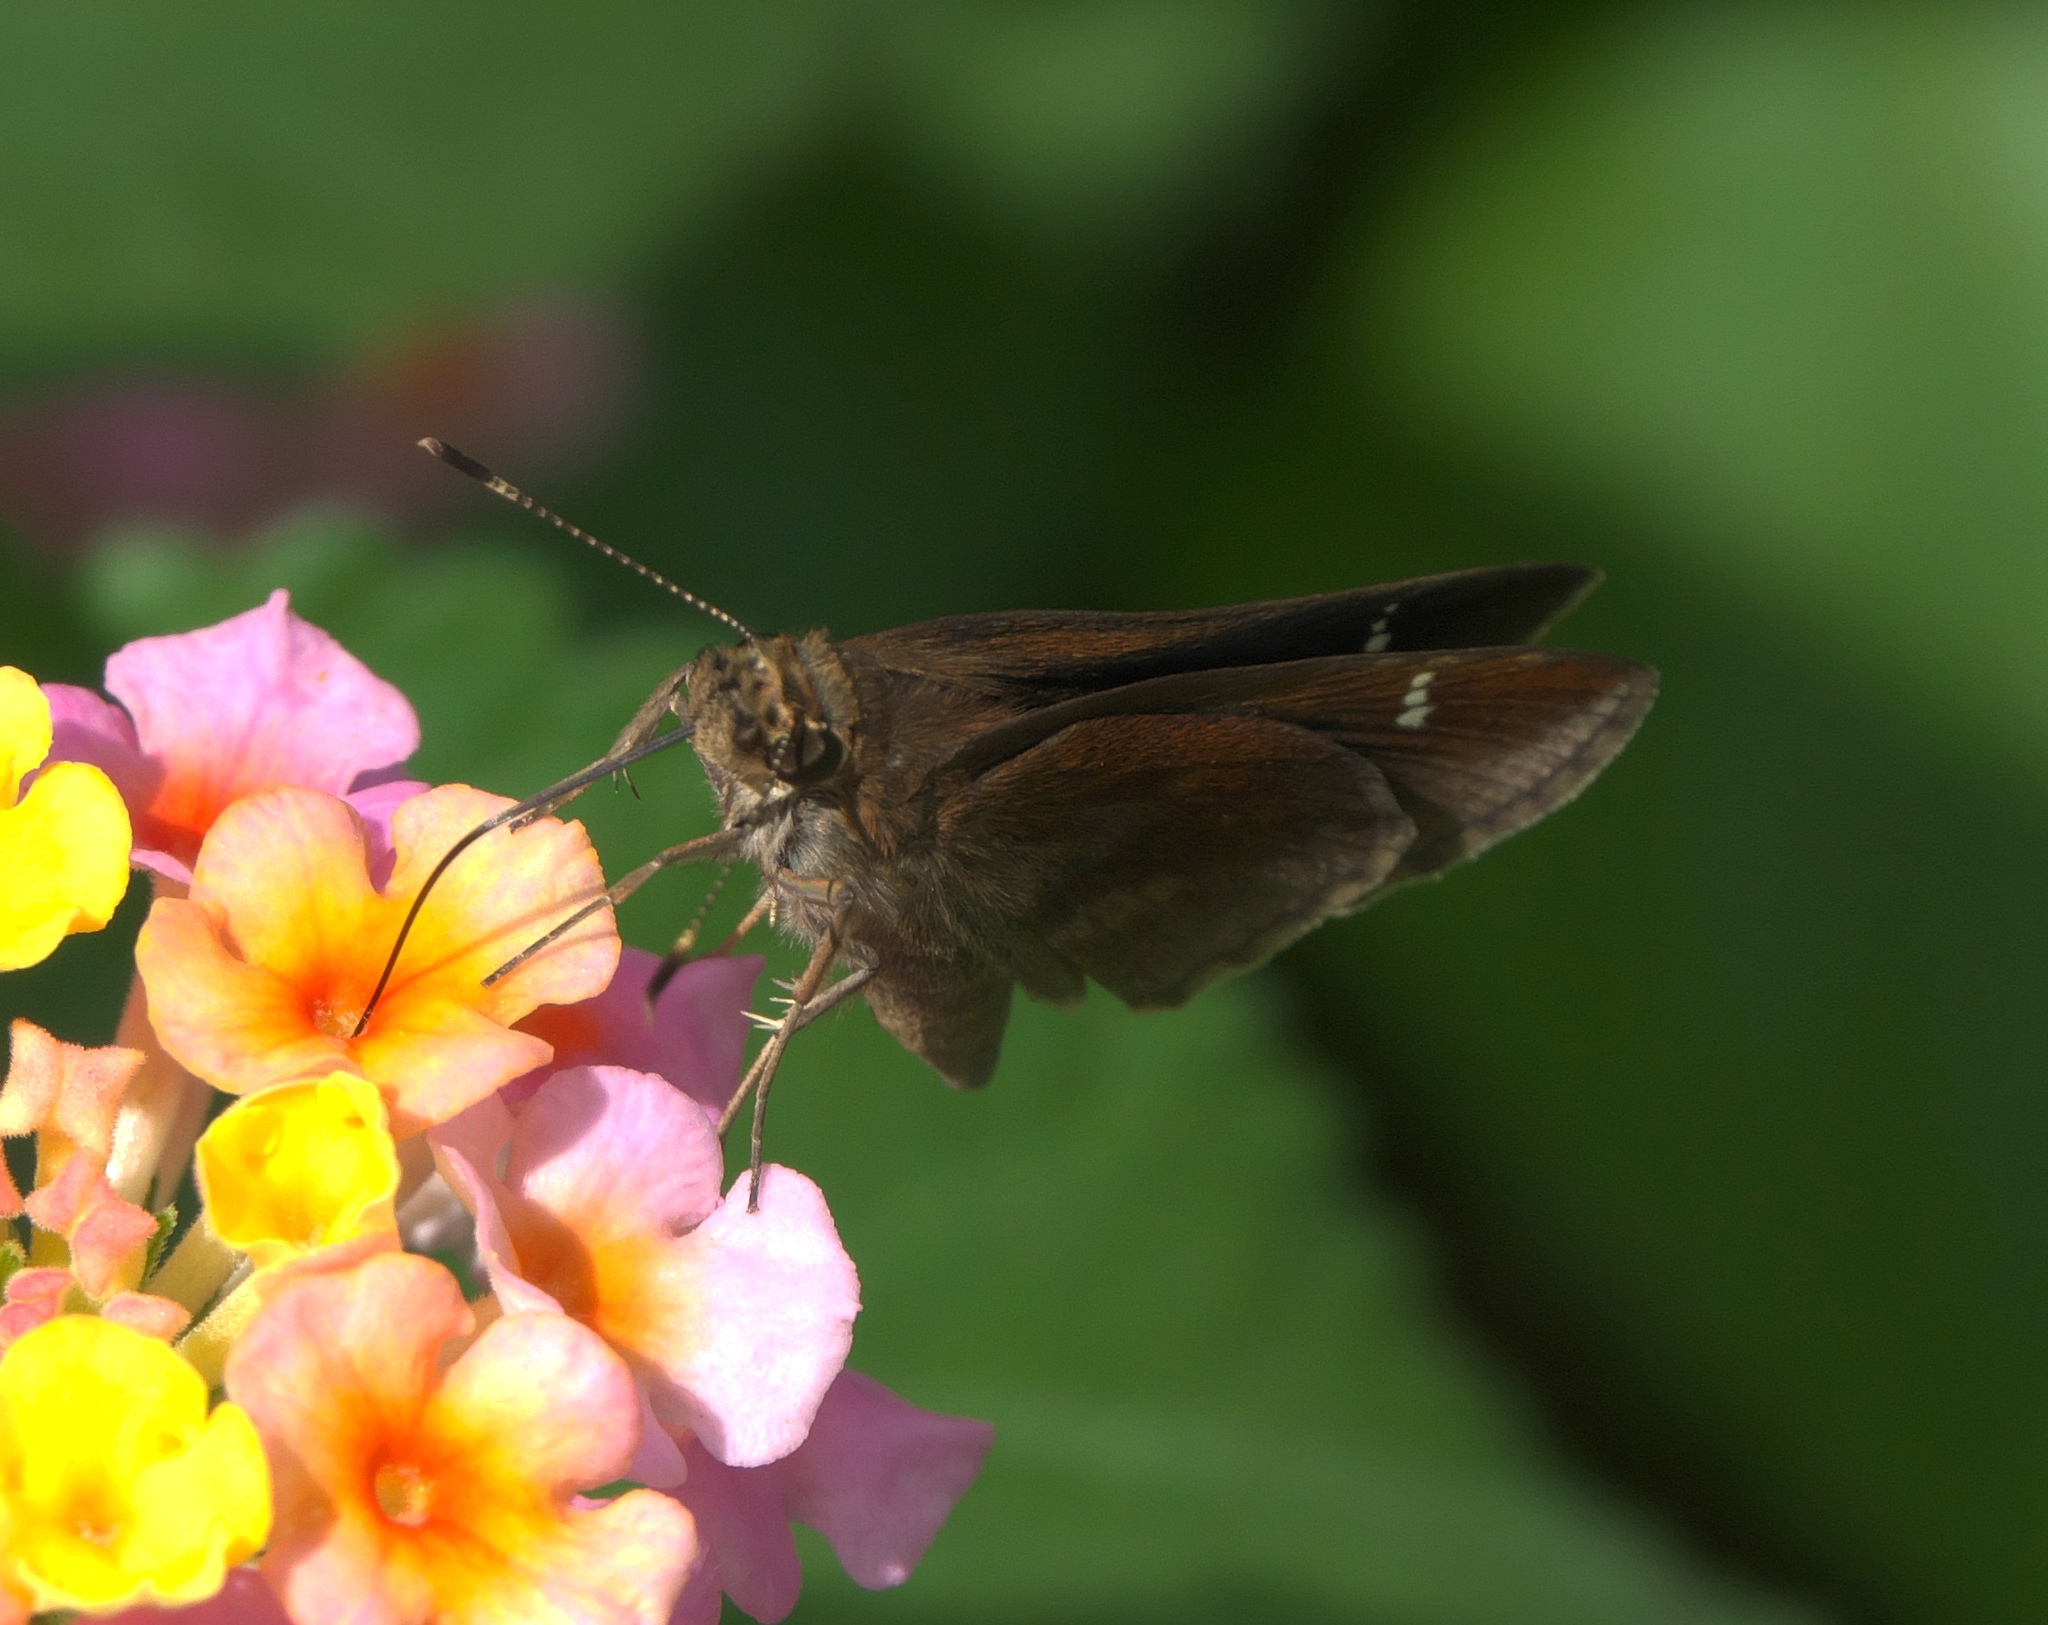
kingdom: Animalia
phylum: Arthropoda
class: Insecta
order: Lepidoptera
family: Hesperiidae
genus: Lerema
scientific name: Lerema accius
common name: Clouded skipper
